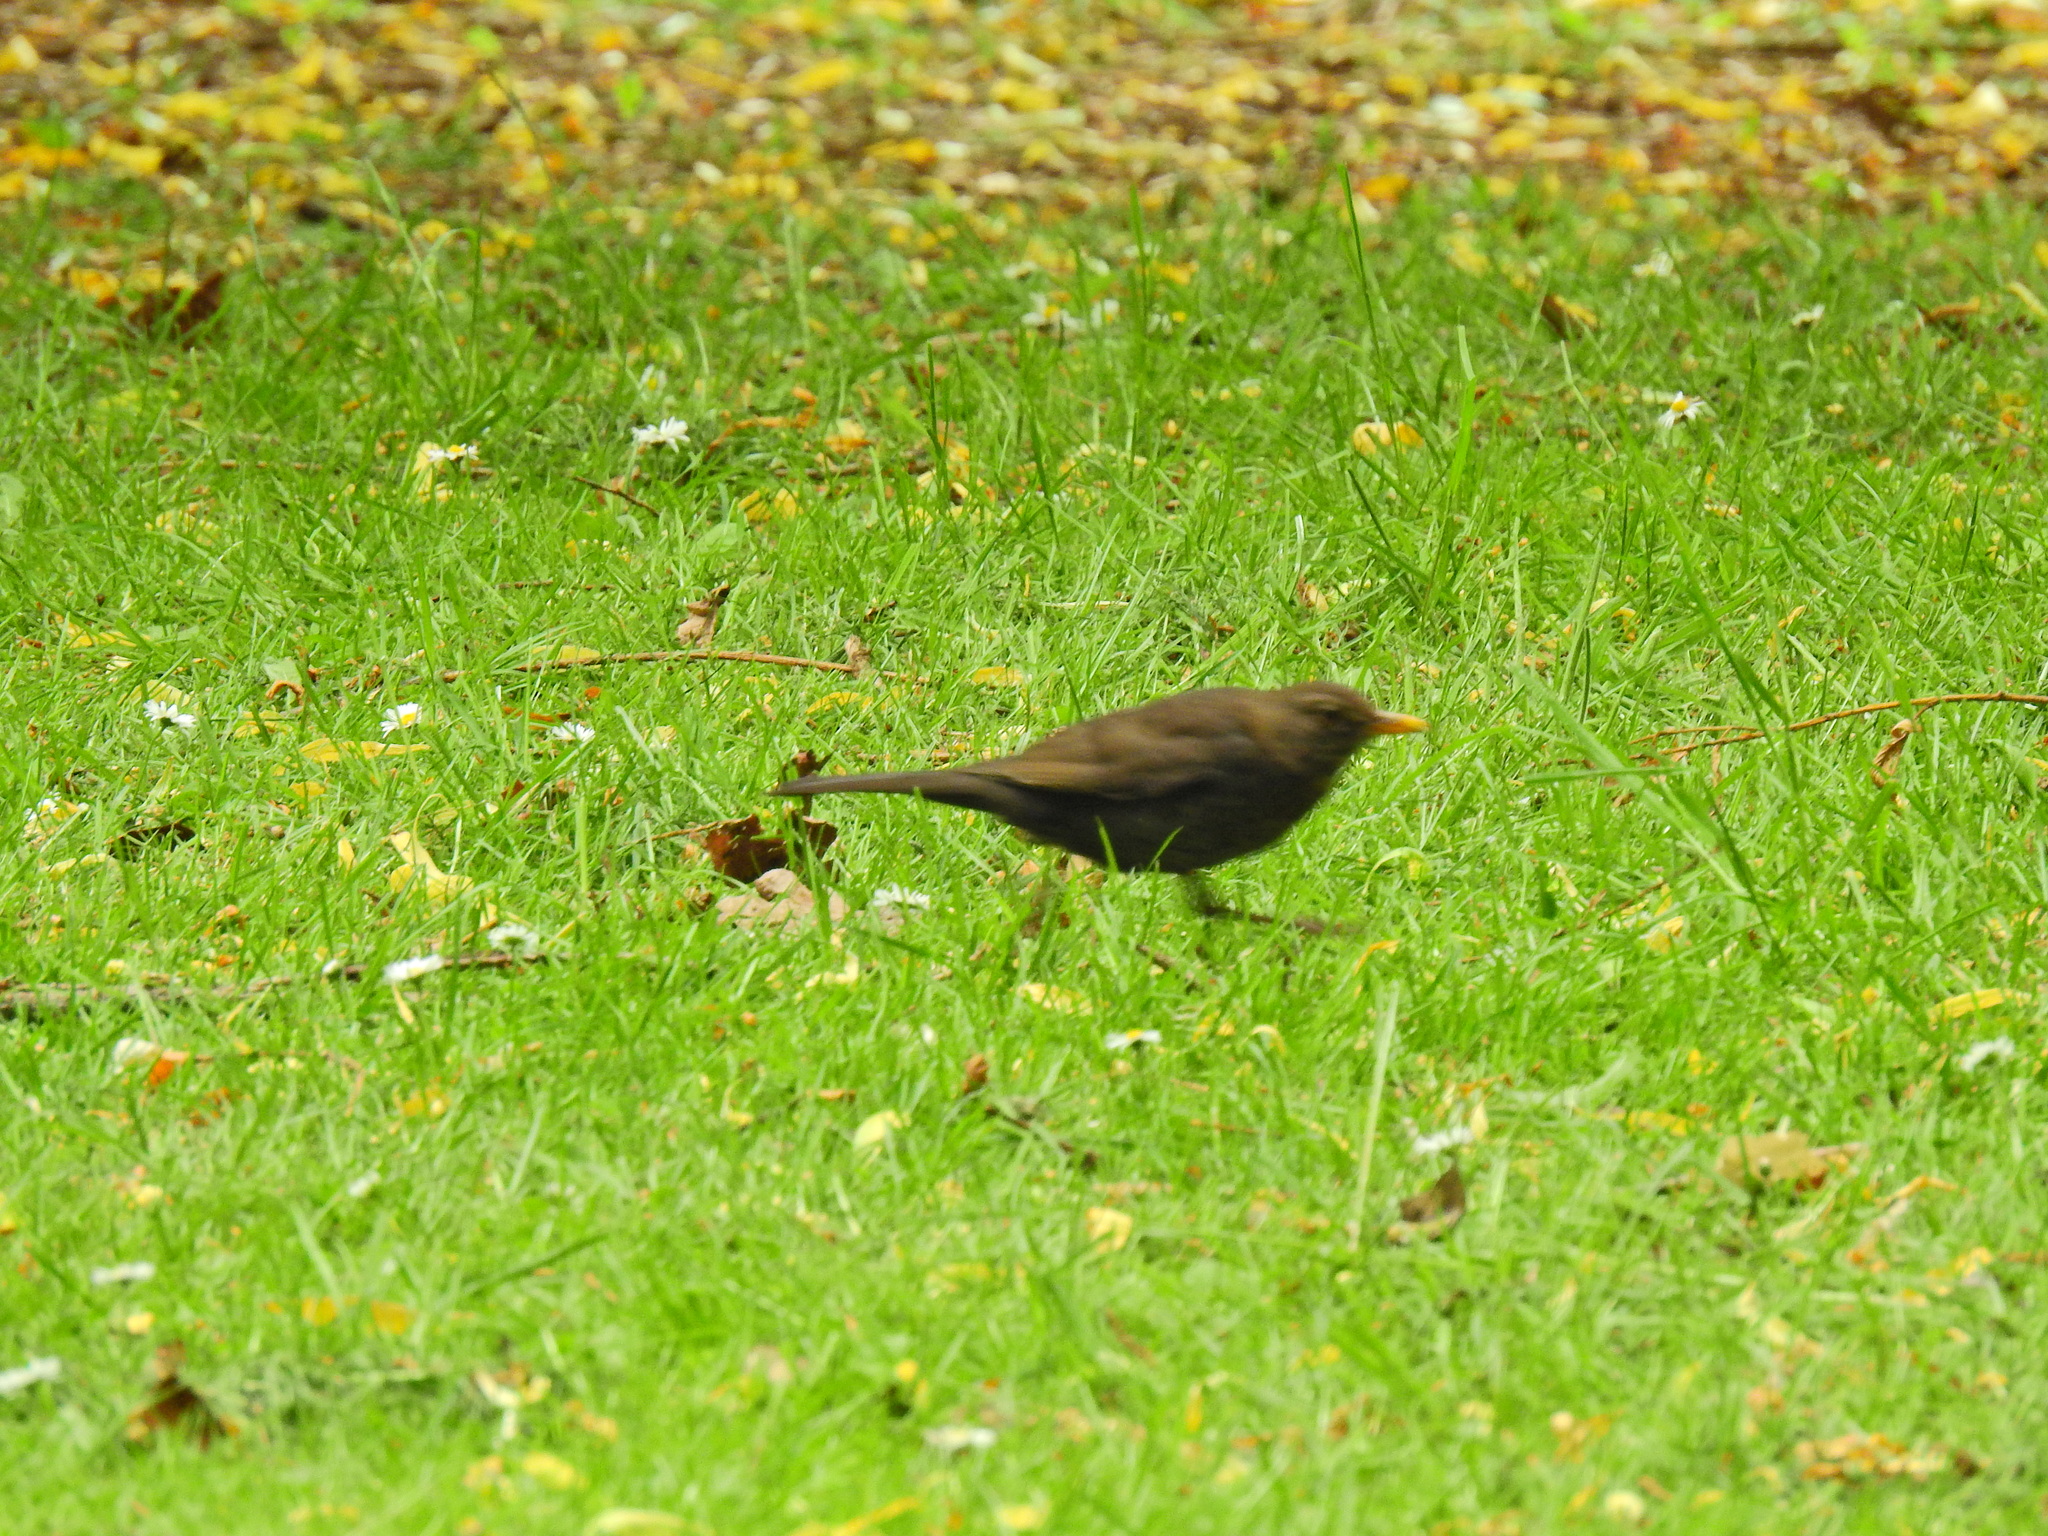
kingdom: Animalia
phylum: Chordata
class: Aves
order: Passeriformes
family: Turdidae
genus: Turdus
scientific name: Turdus merula
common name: Common blackbird
